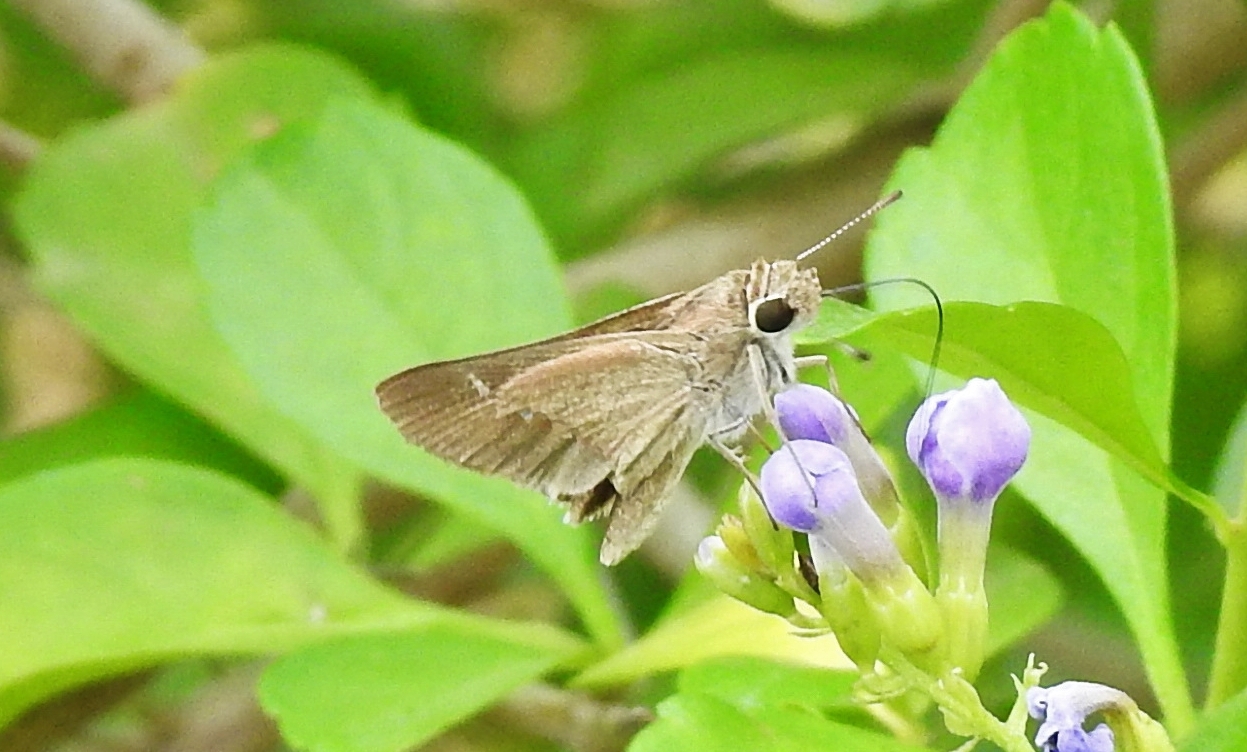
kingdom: Animalia
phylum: Arthropoda
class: Insecta
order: Lepidoptera
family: Hesperiidae
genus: Lerodea
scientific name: Lerodea eufala
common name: Eufala skipper
